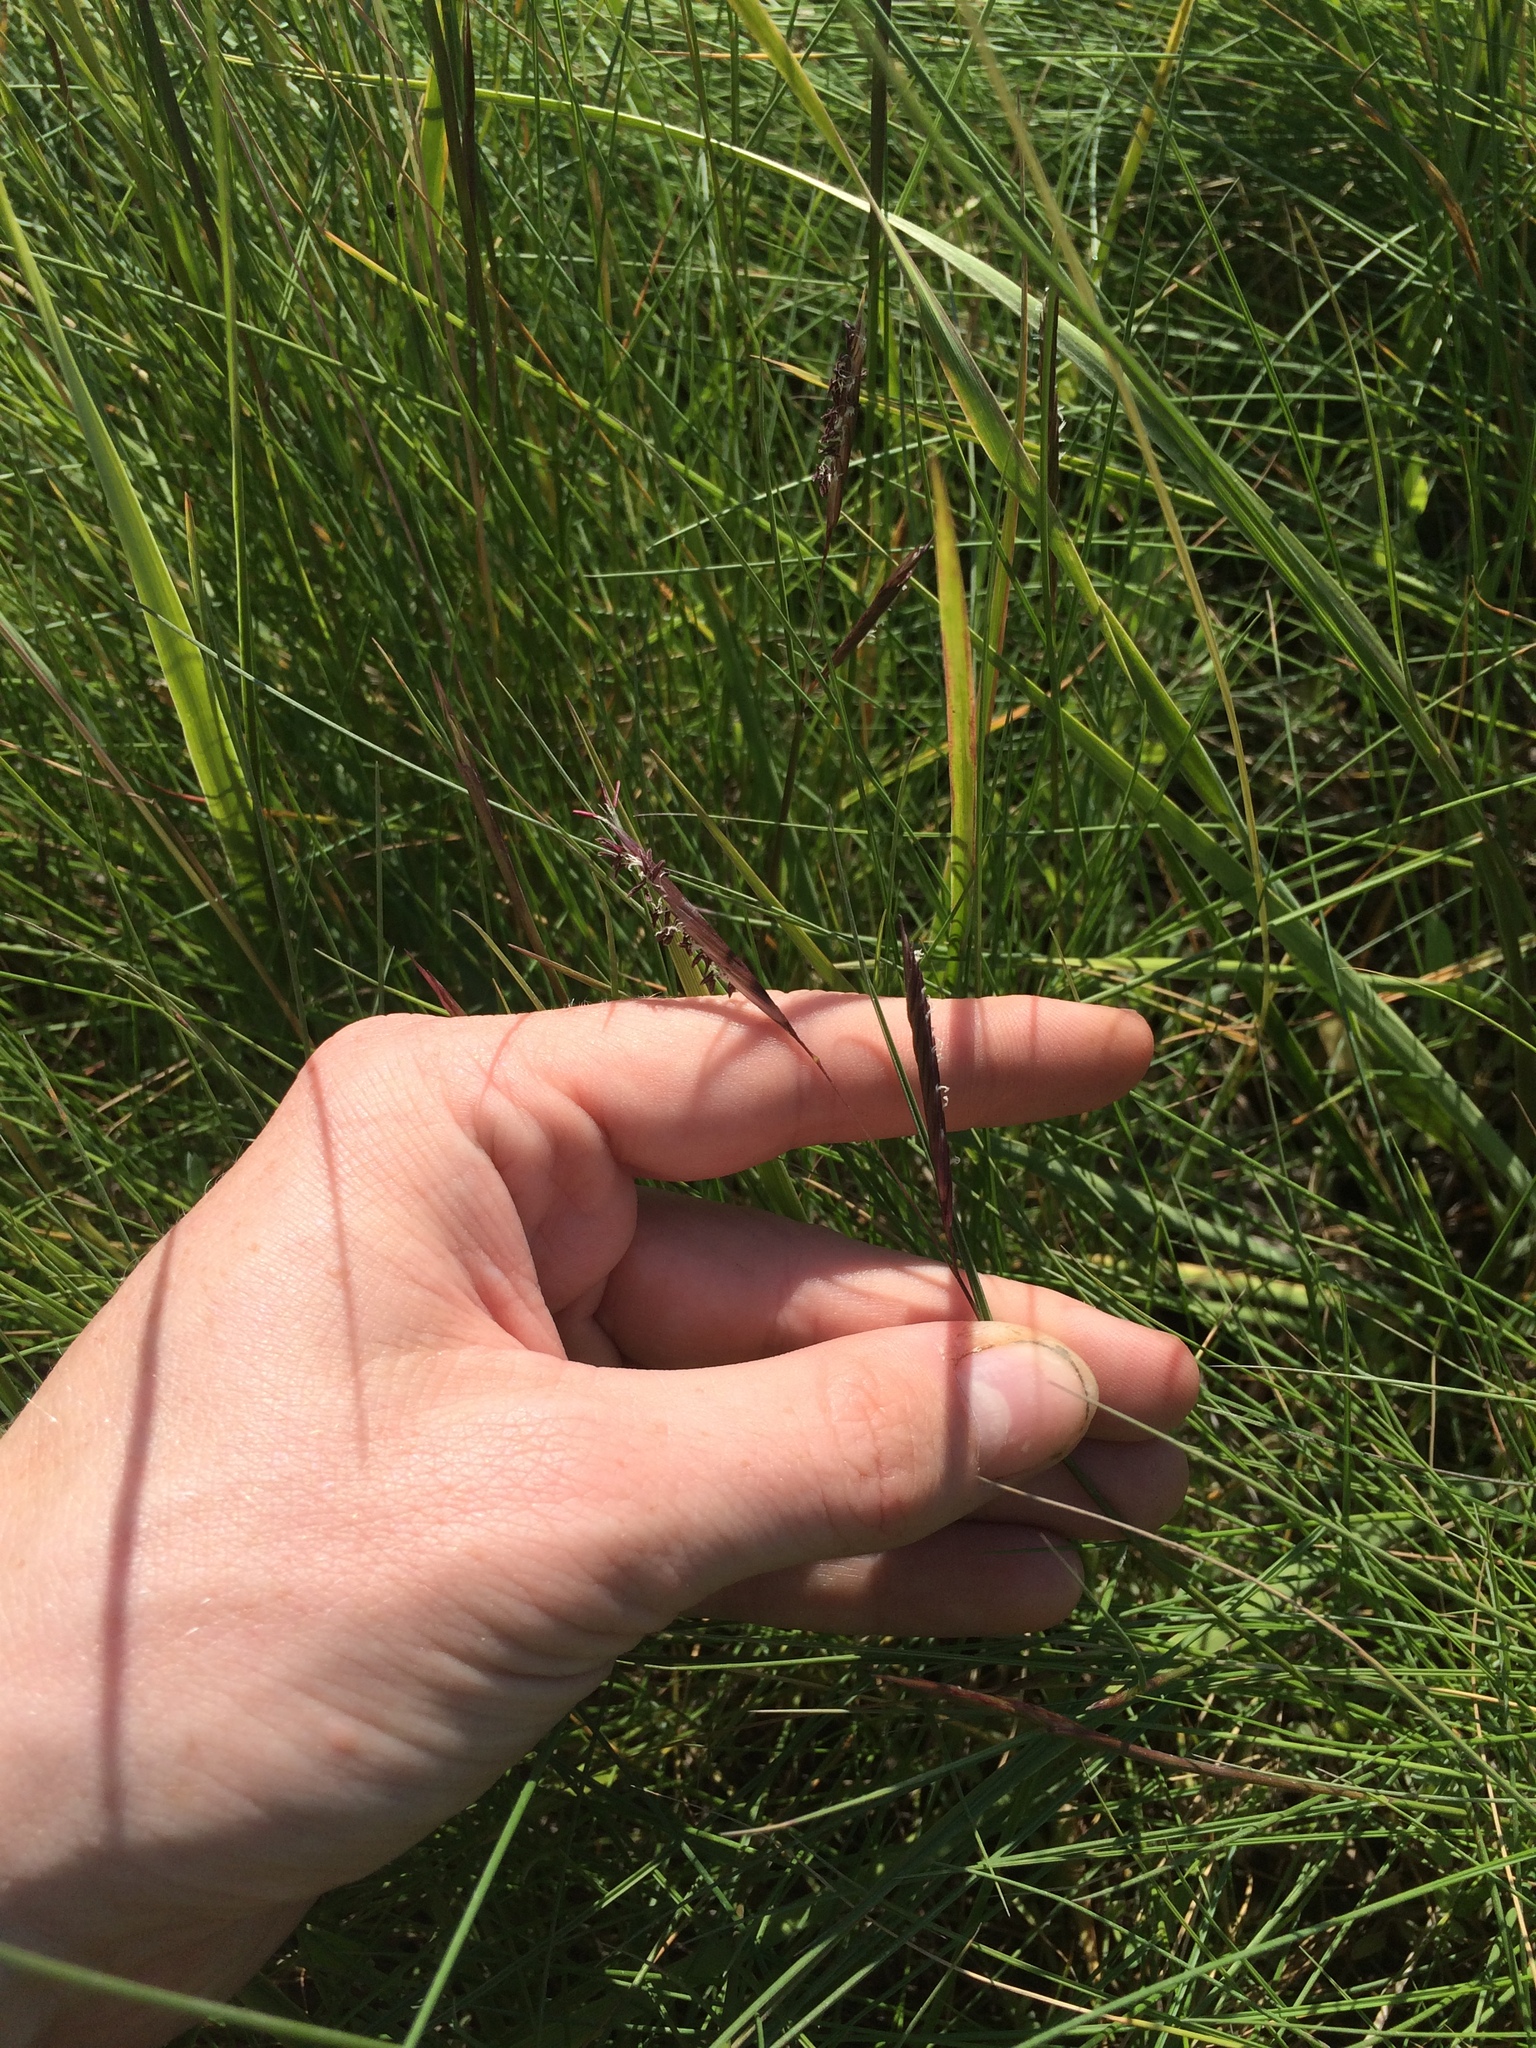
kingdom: Plantae
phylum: Tracheophyta
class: Liliopsida
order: Poales
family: Poaceae
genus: Sporobolus
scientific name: Sporobolus pumilus
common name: Highwater grass
